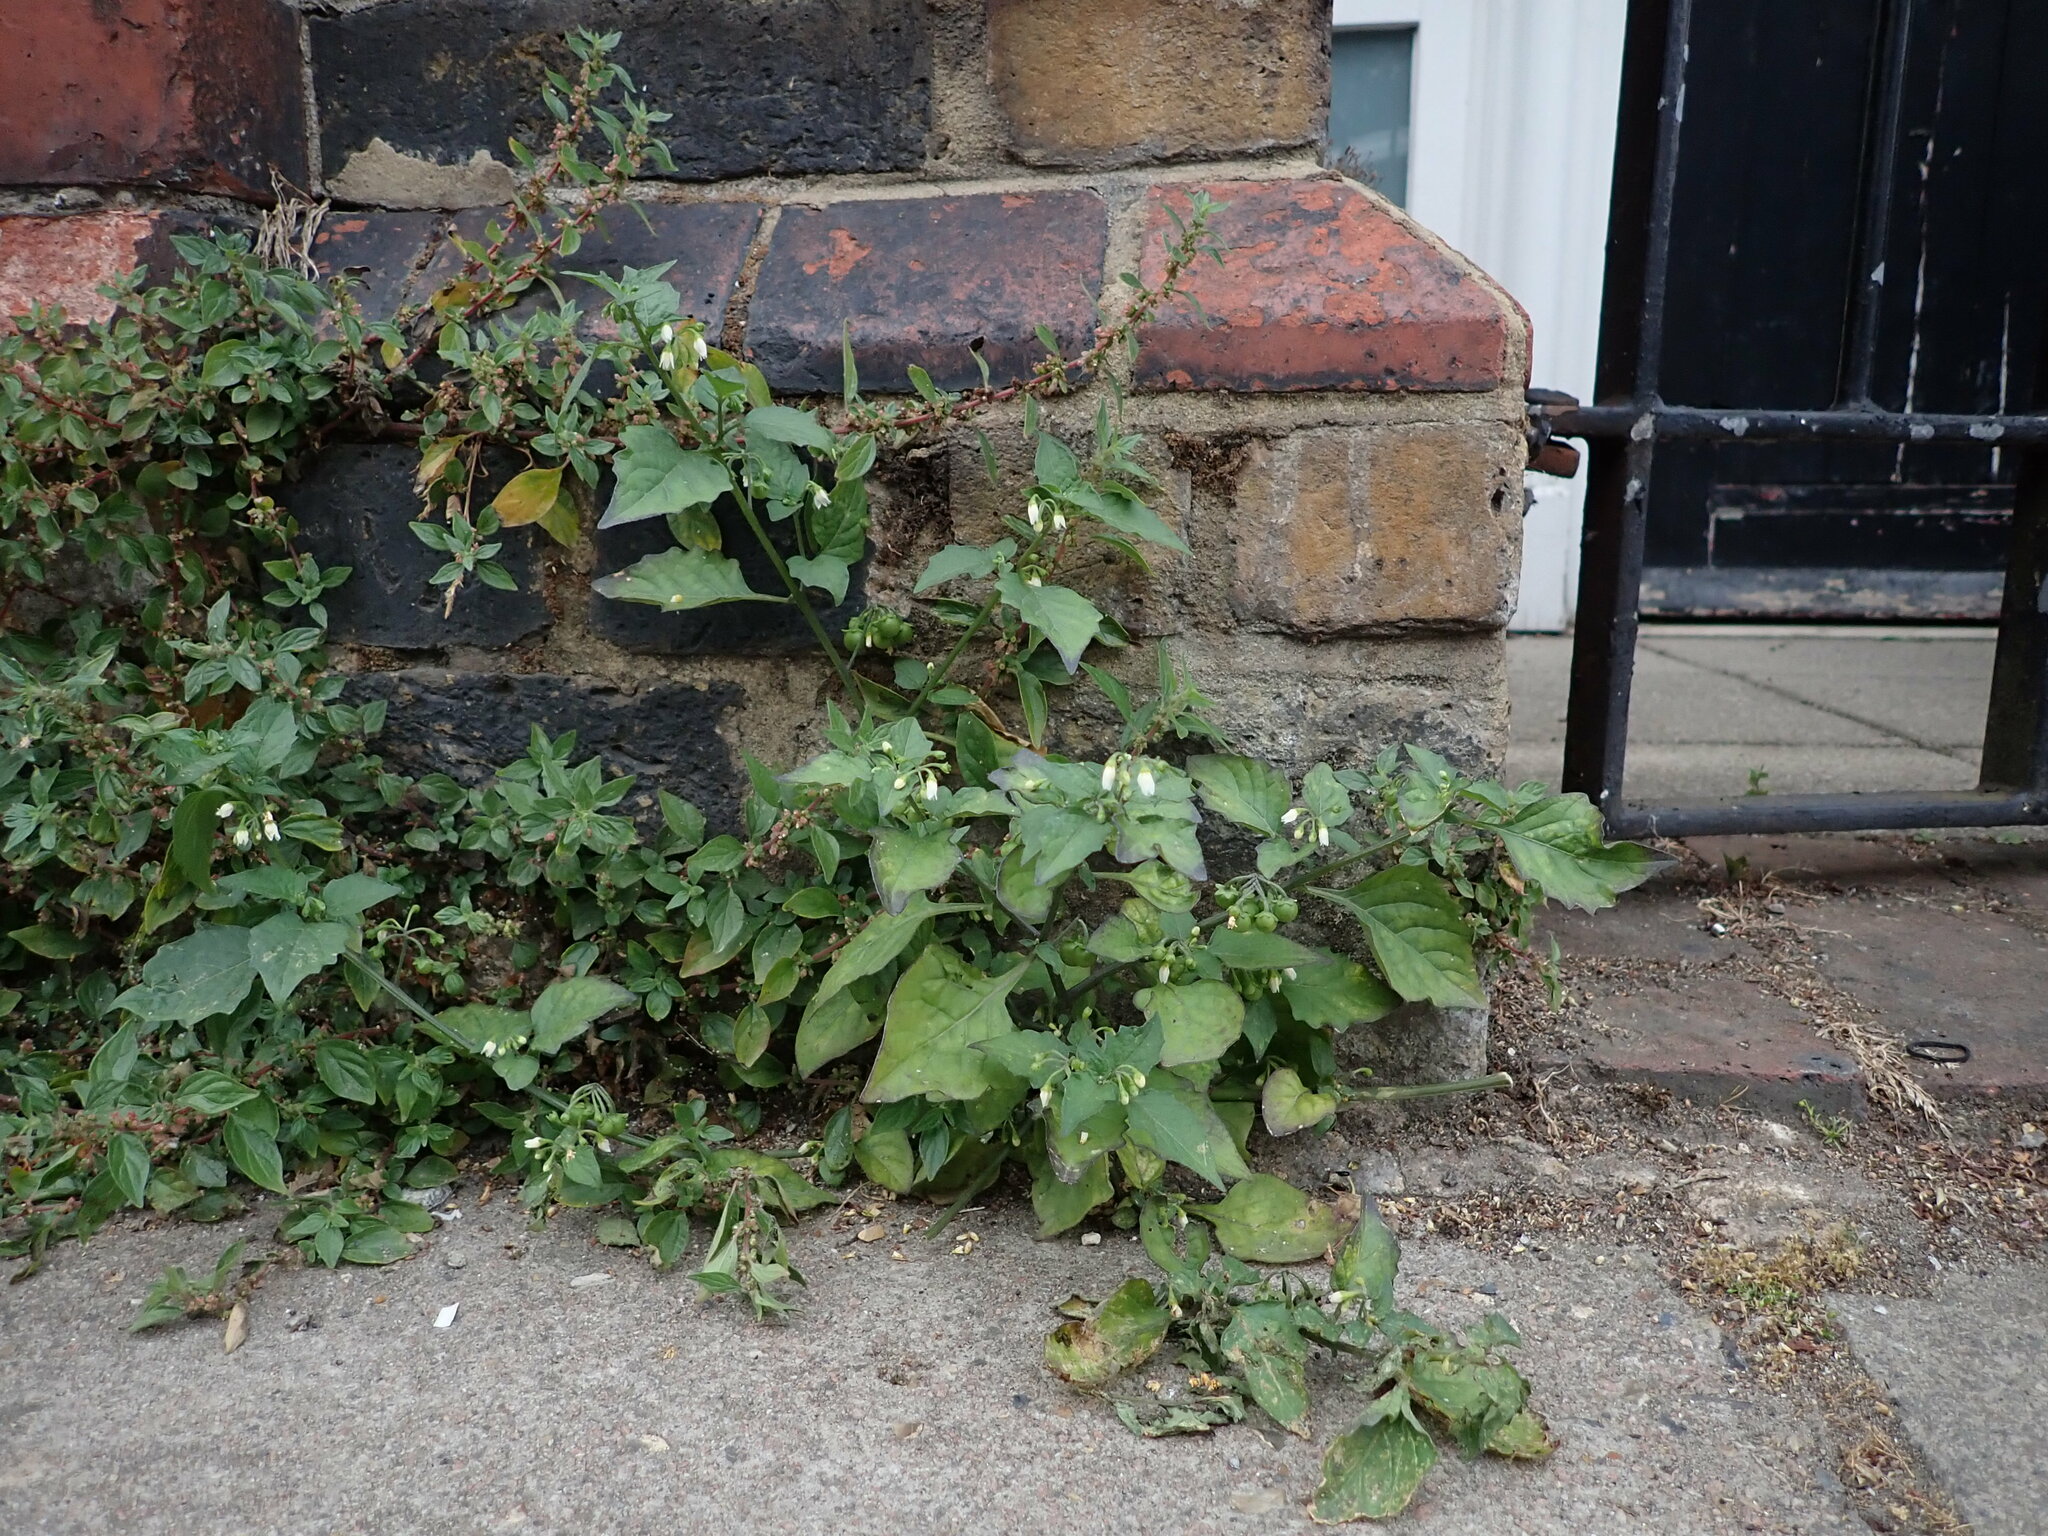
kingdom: Plantae
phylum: Tracheophyta
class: Magnoliopsida
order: Solanales
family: Solanaceae
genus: Solanum
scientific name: Solanum nigrum
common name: Black nightshade
